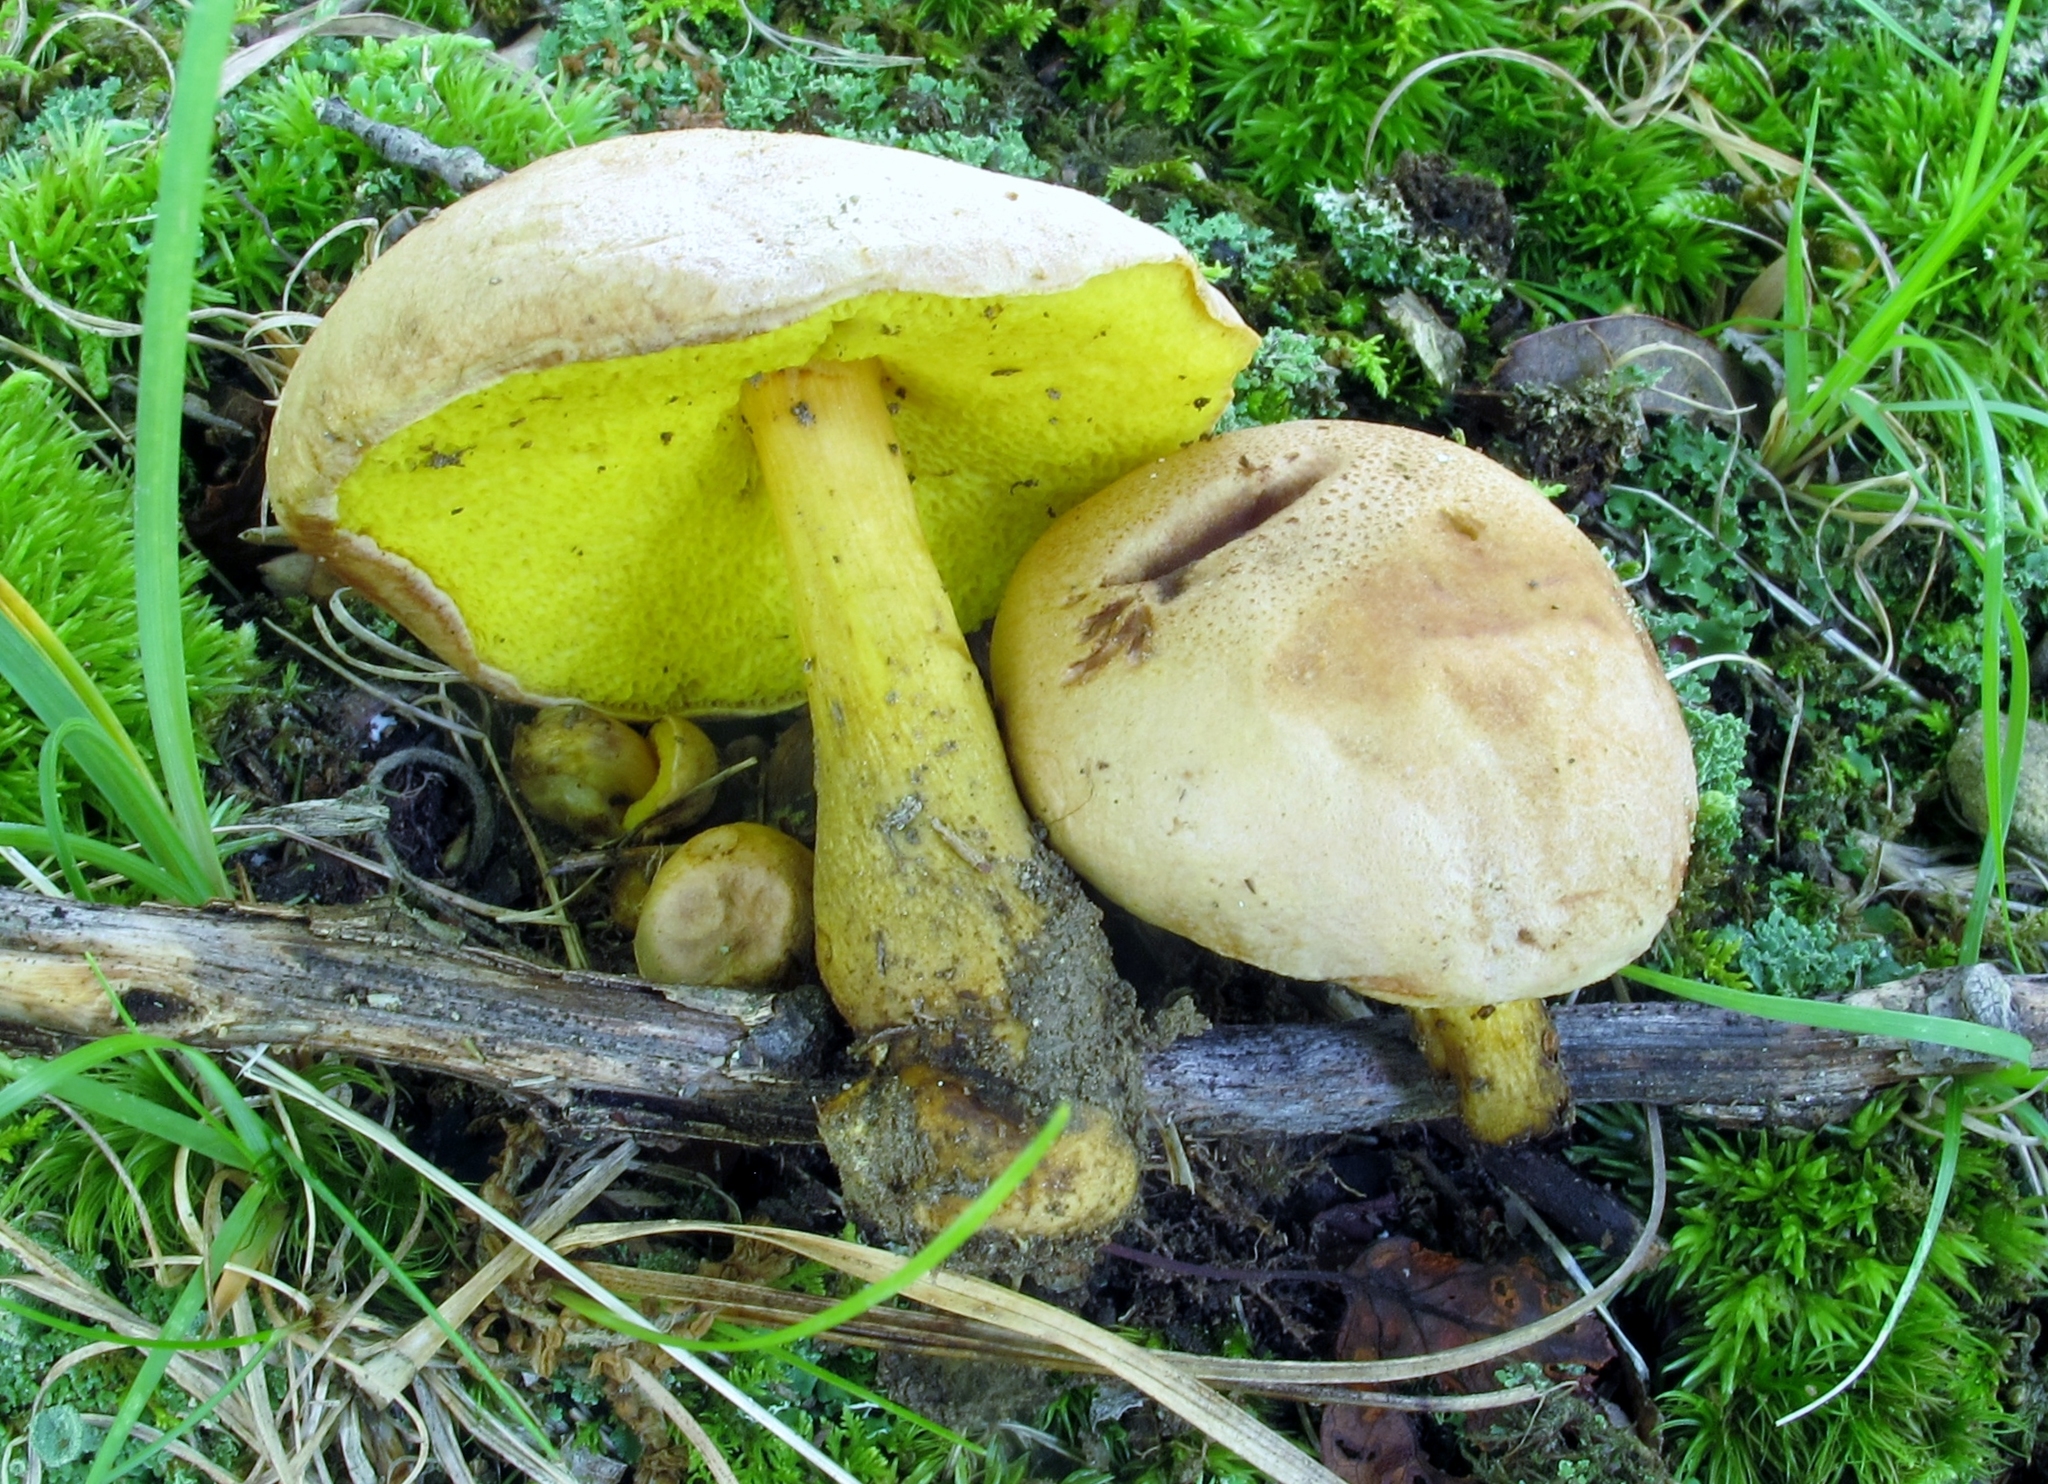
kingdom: Fungi
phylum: Basidiomycota
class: Agaricomycetes
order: Boletales
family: Boletaceae
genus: Aureoboletus
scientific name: Aureoboletus auriporus
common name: Sour gold-pored bolete
